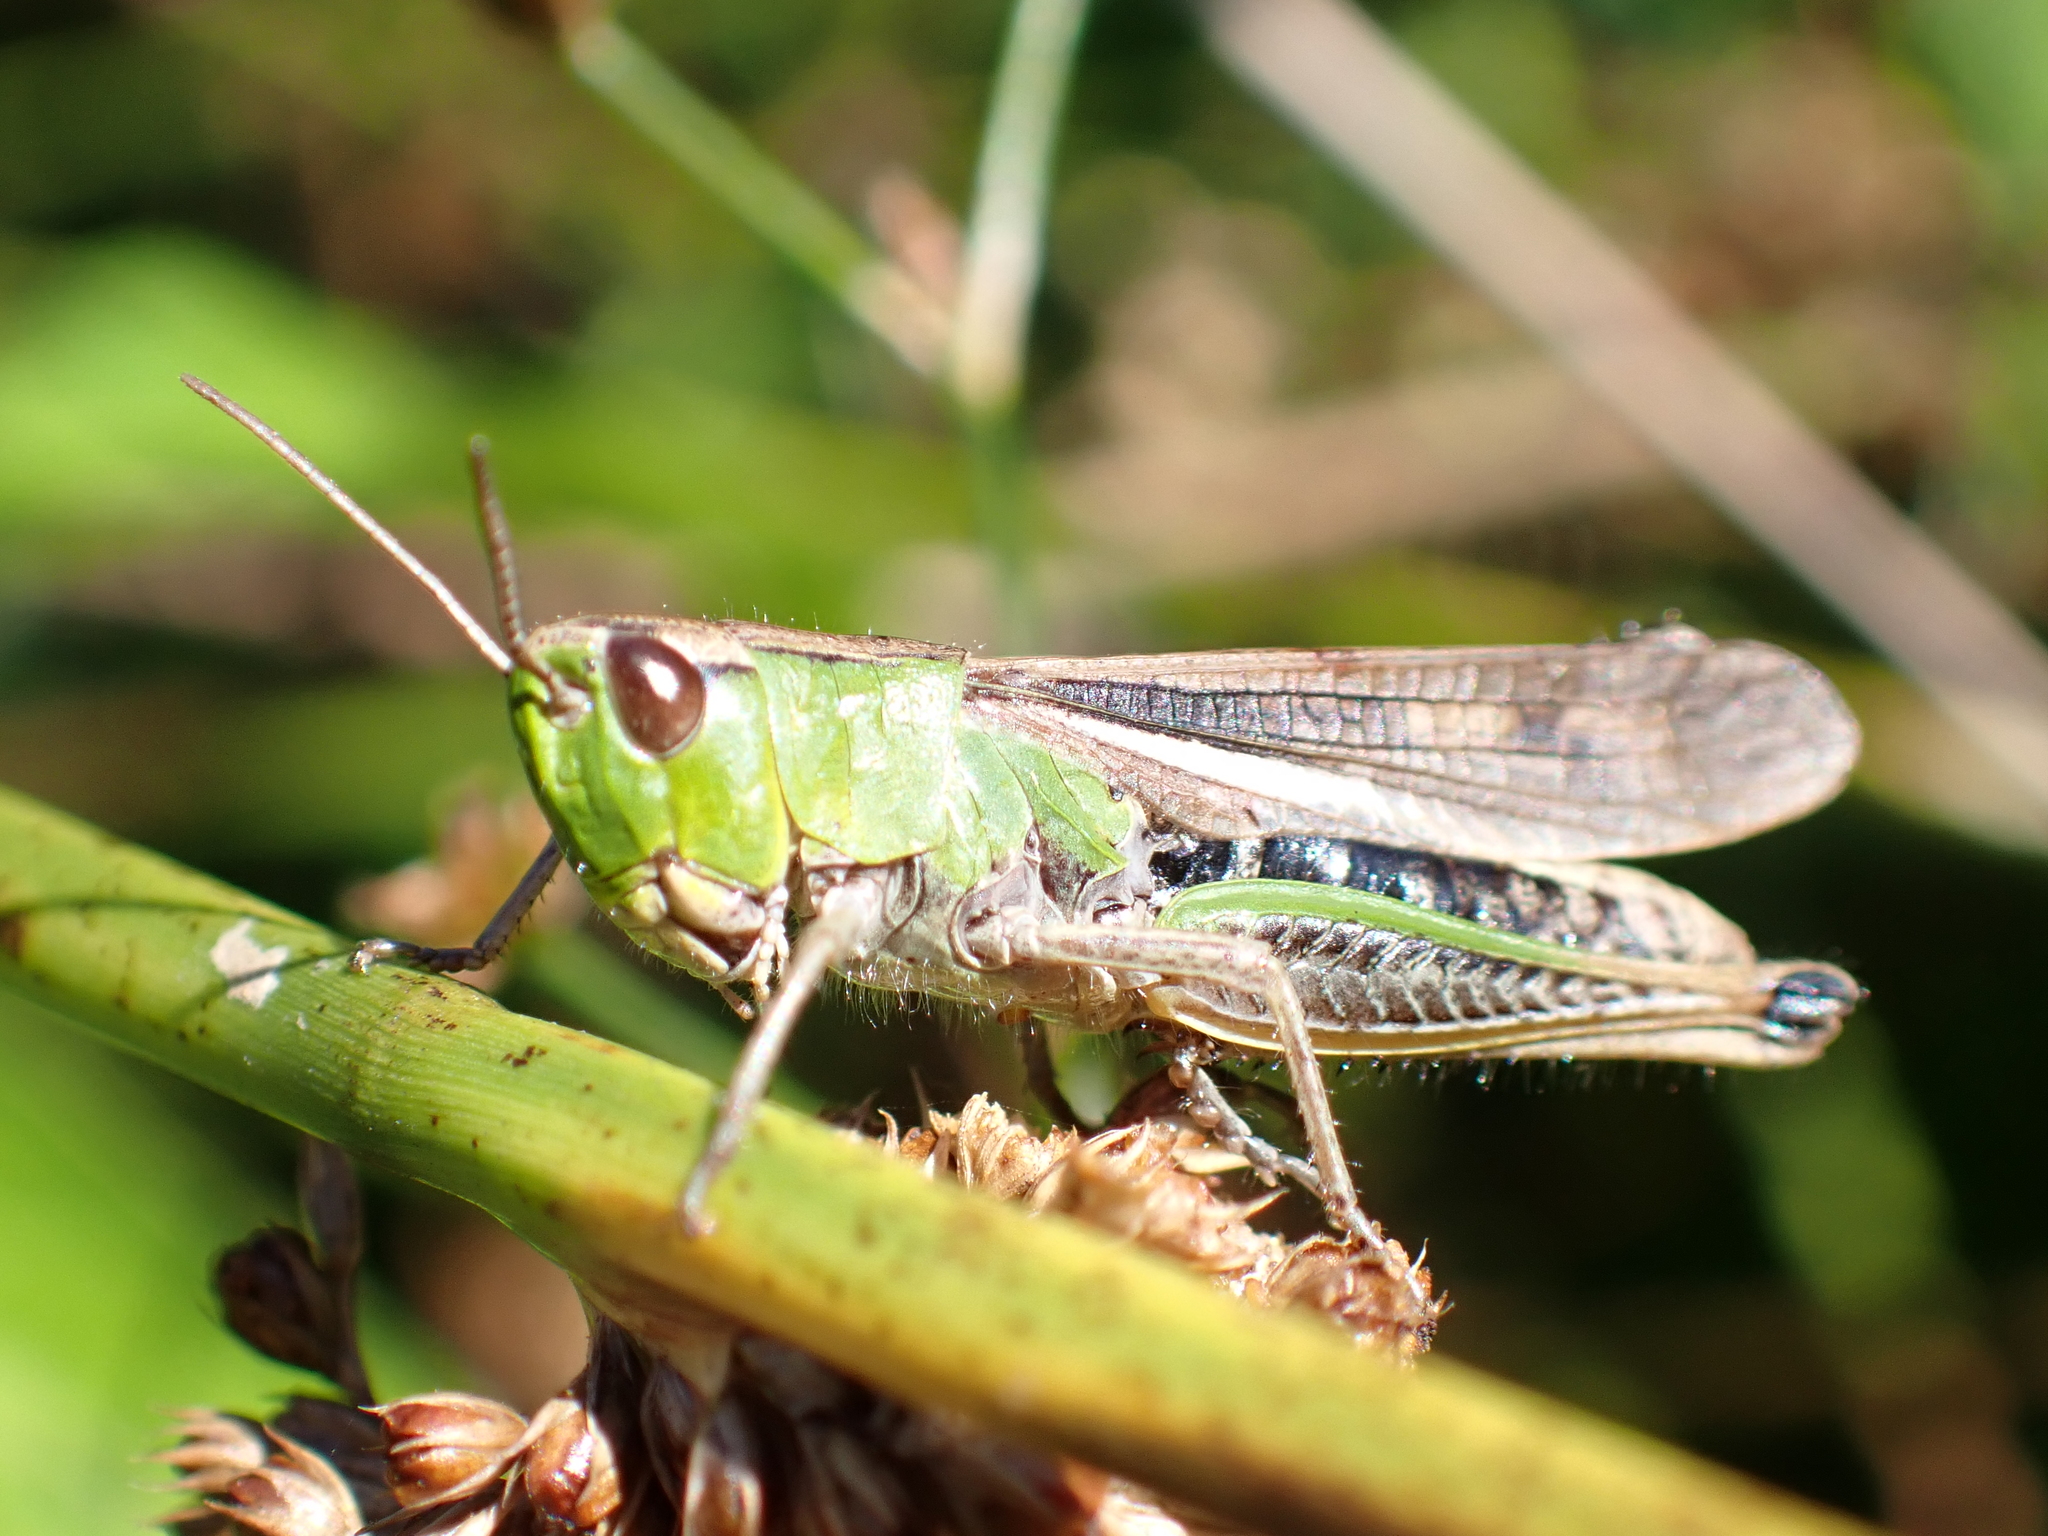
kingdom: Animalia
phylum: Arthropoda
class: Insecta
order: Orthoptera
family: Acrididae
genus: Pseudochorthippus
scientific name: Pseudochorthippus parallelus
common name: Meadow grasshopper
